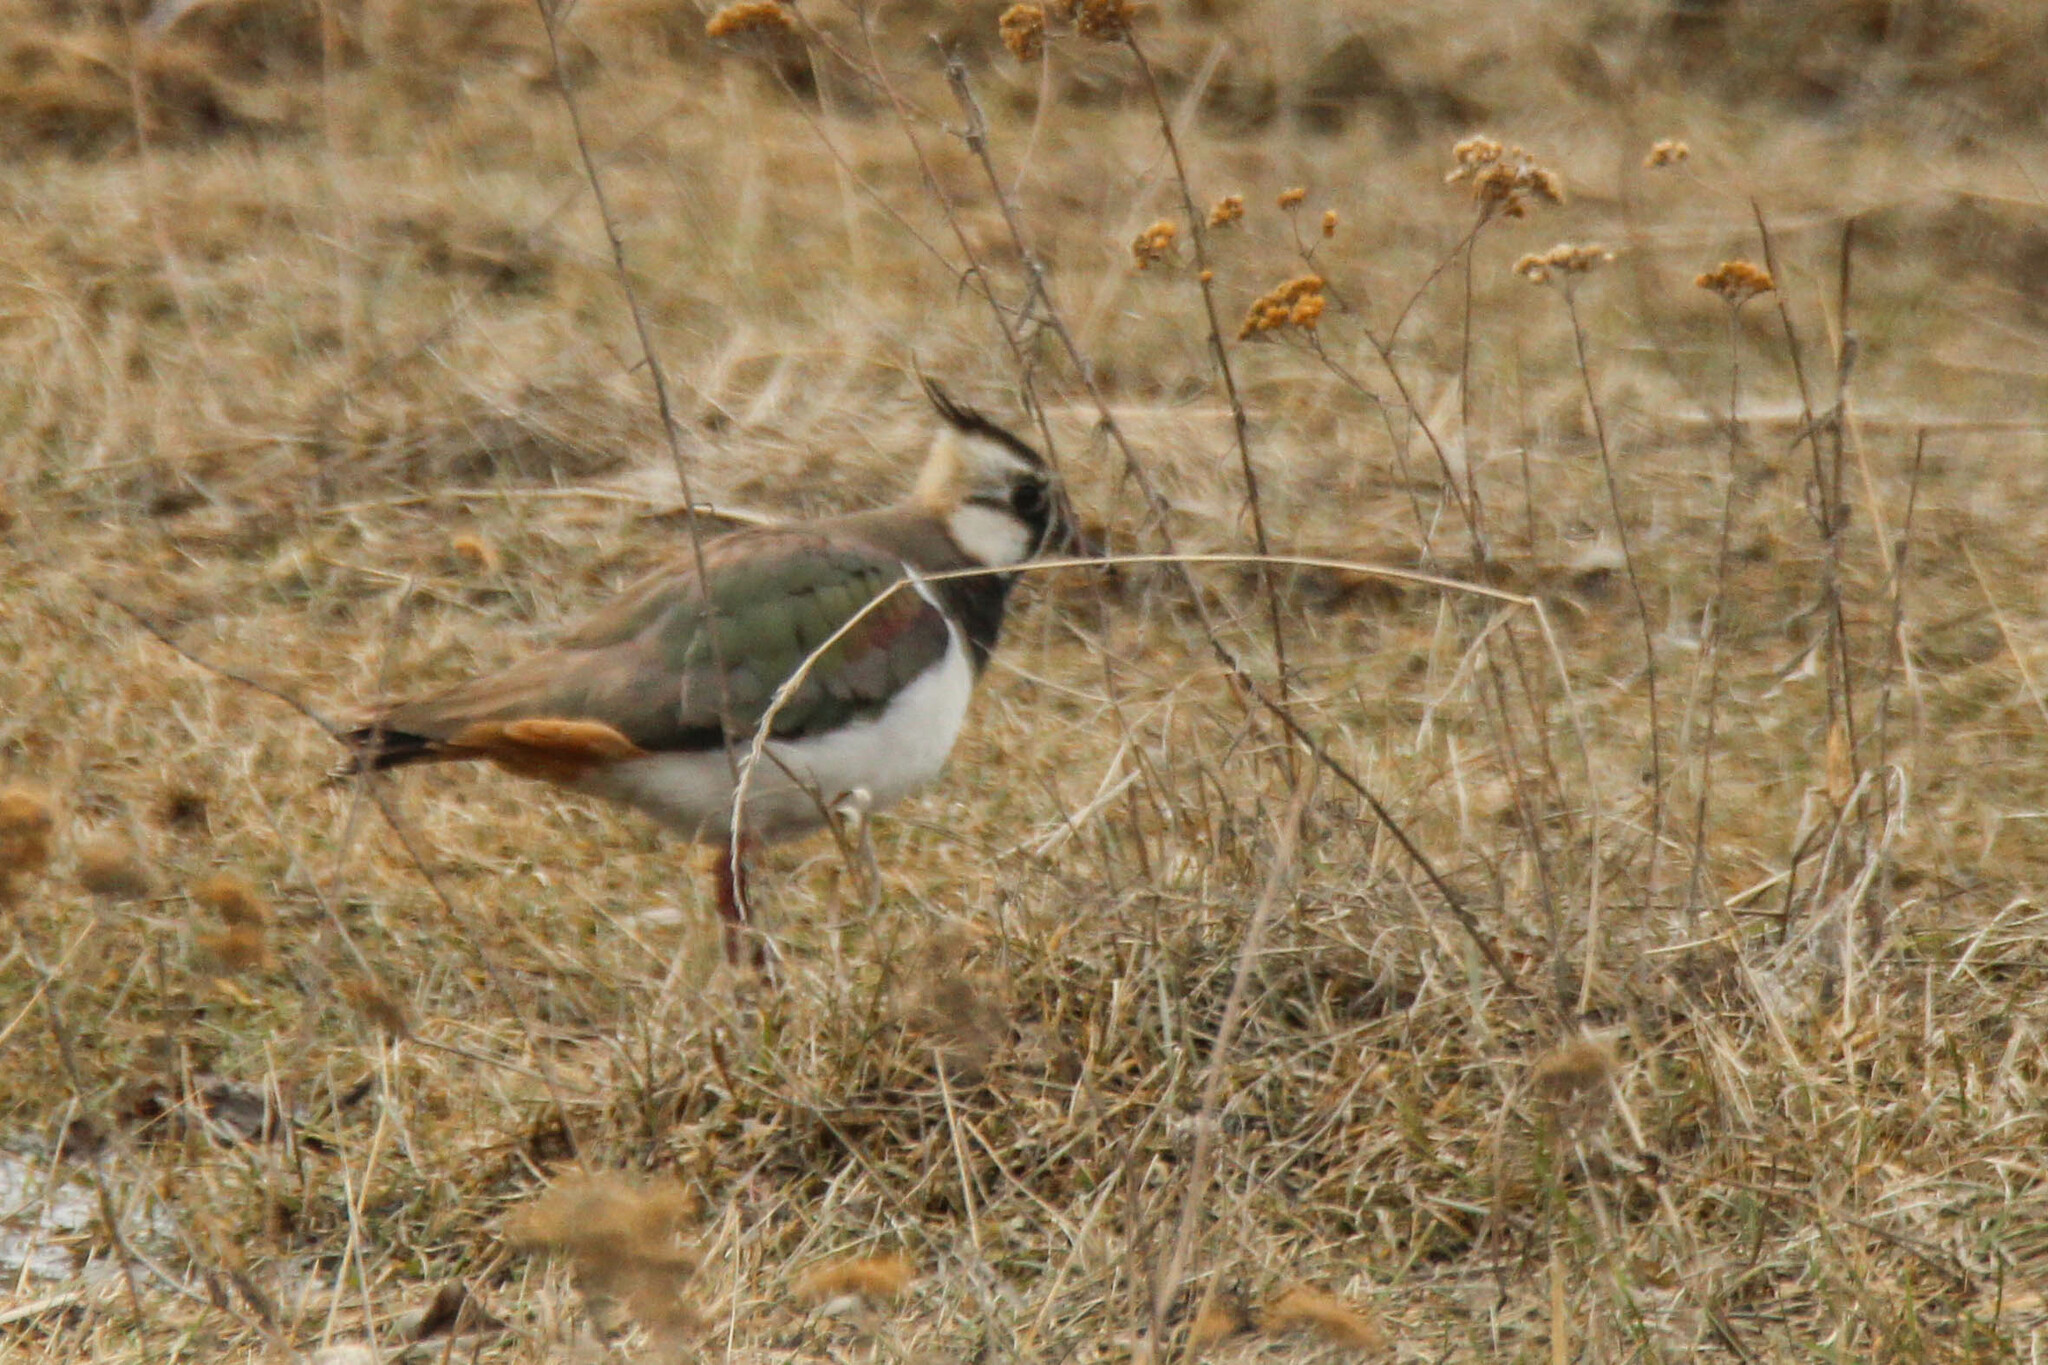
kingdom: Animalia
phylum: Chordata
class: Aves
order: Charadriiformes
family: Charadriidae
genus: Vanellus
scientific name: Vanellus vanellus
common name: Northern lapwing
